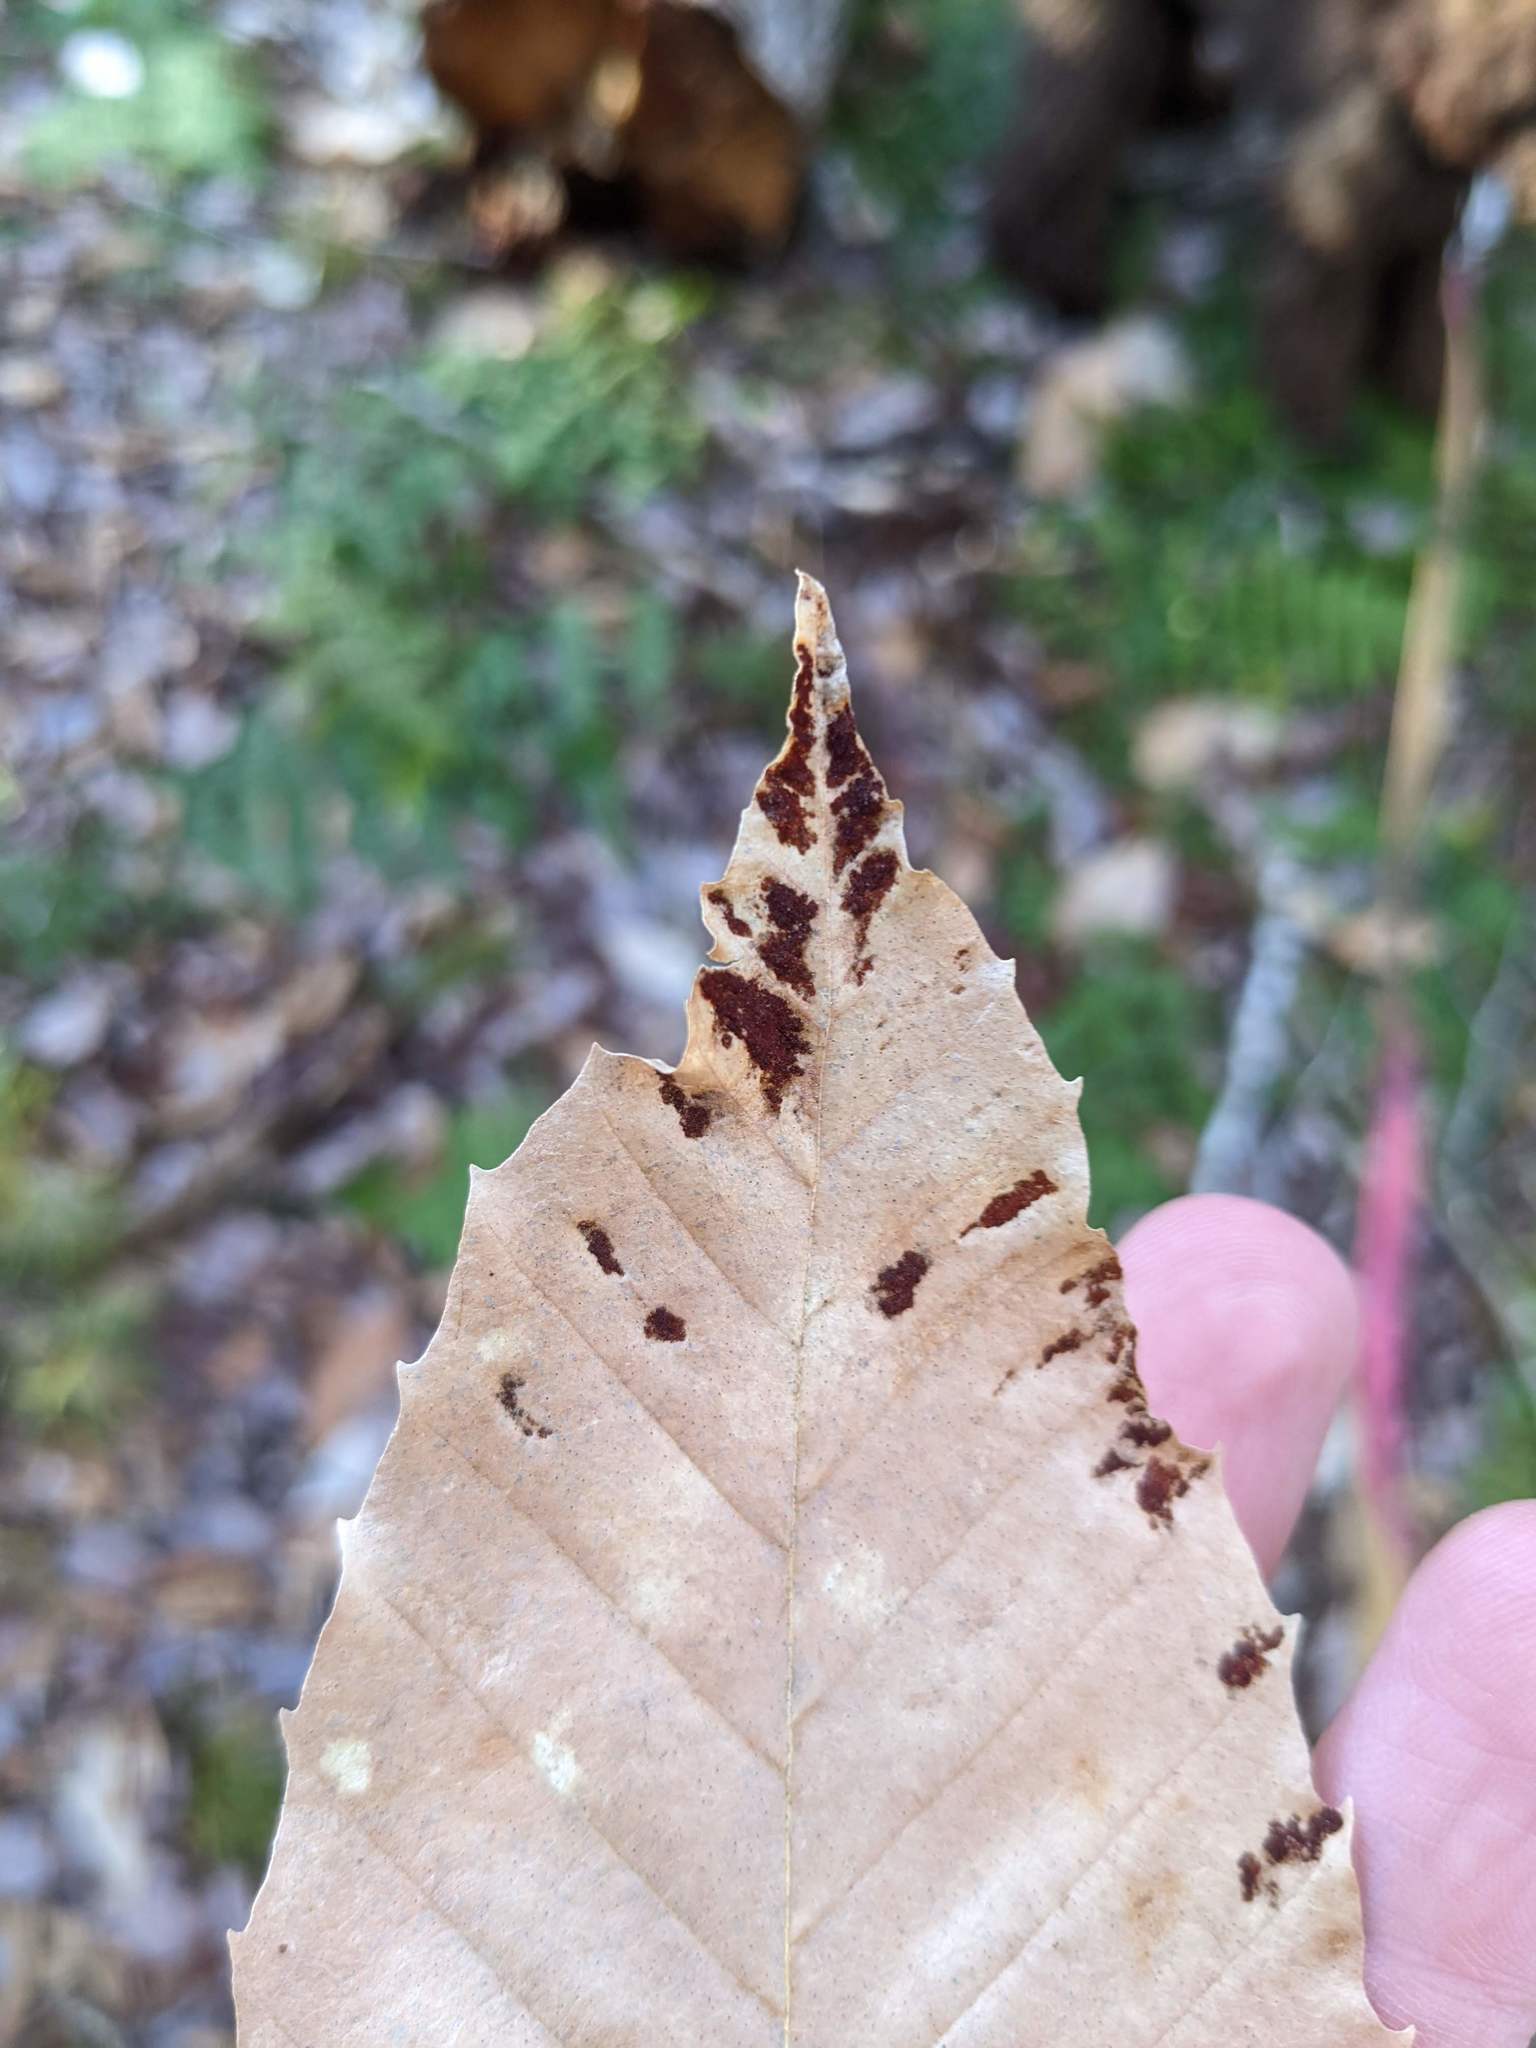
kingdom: Animalia
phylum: Arthropoda
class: Arachnida
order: Trombidiformes
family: Eriophyidae
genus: Acalitus
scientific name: Acalitus
